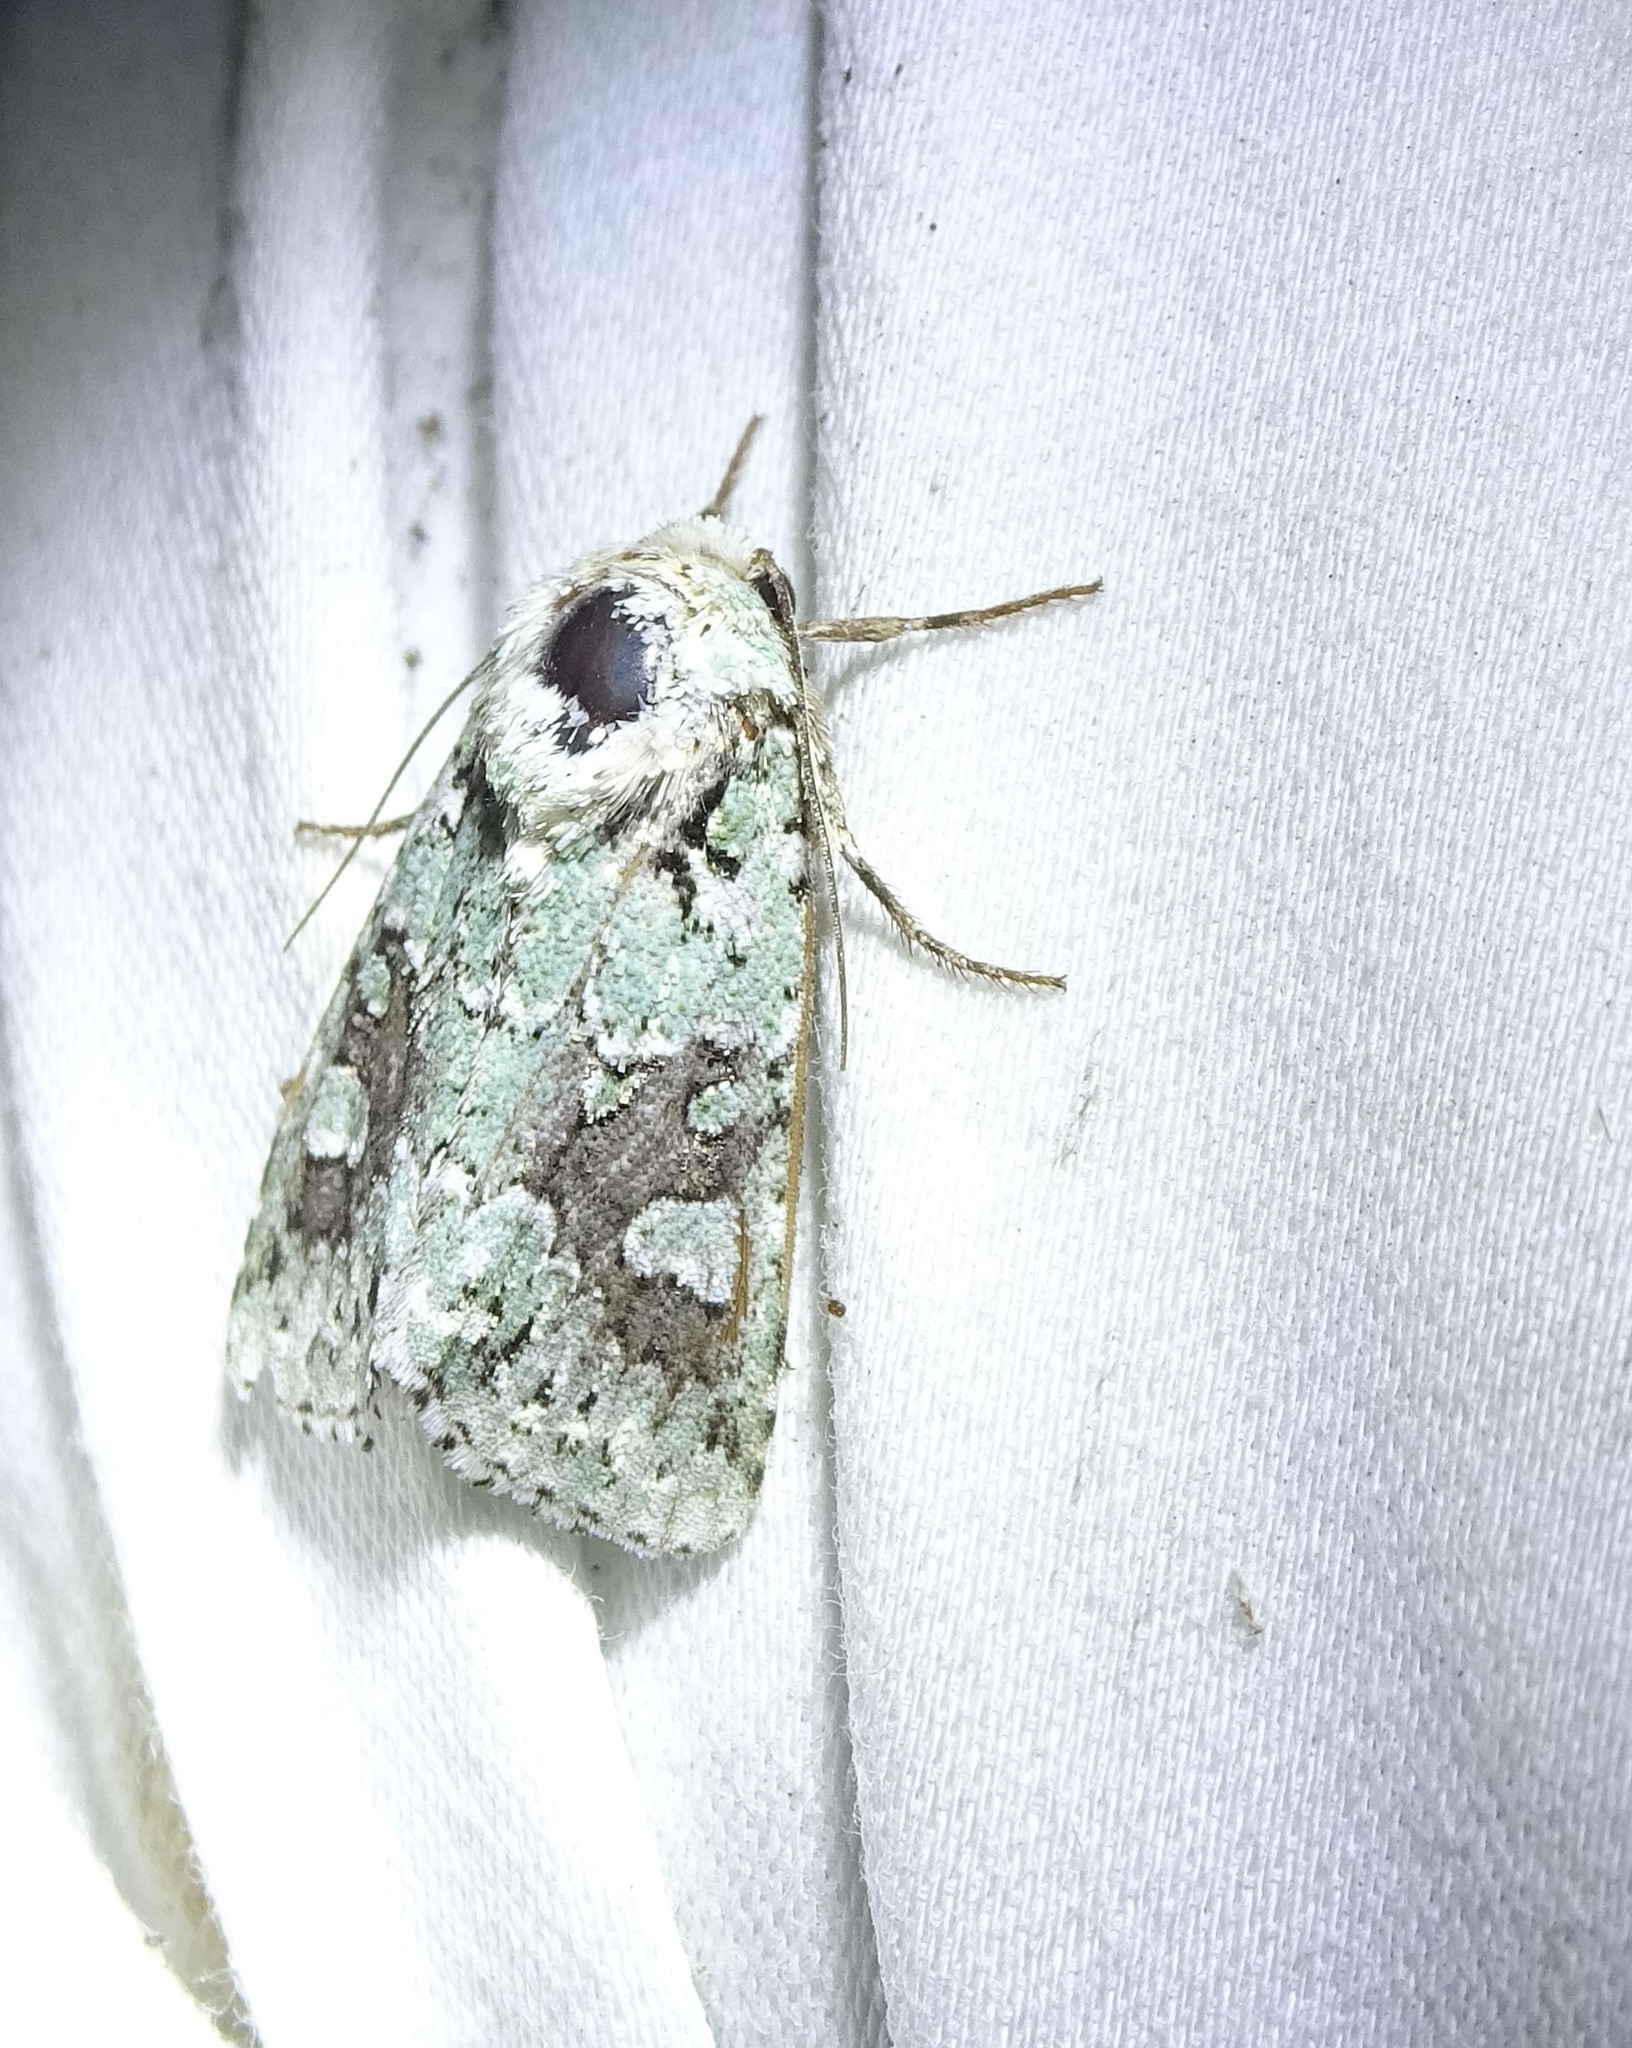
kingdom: Animalia
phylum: Arthropoda
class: Insecta
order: Lepidoptera
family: Noctuidae
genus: Lacinipolia
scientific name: Lacinipolia laudabilis
